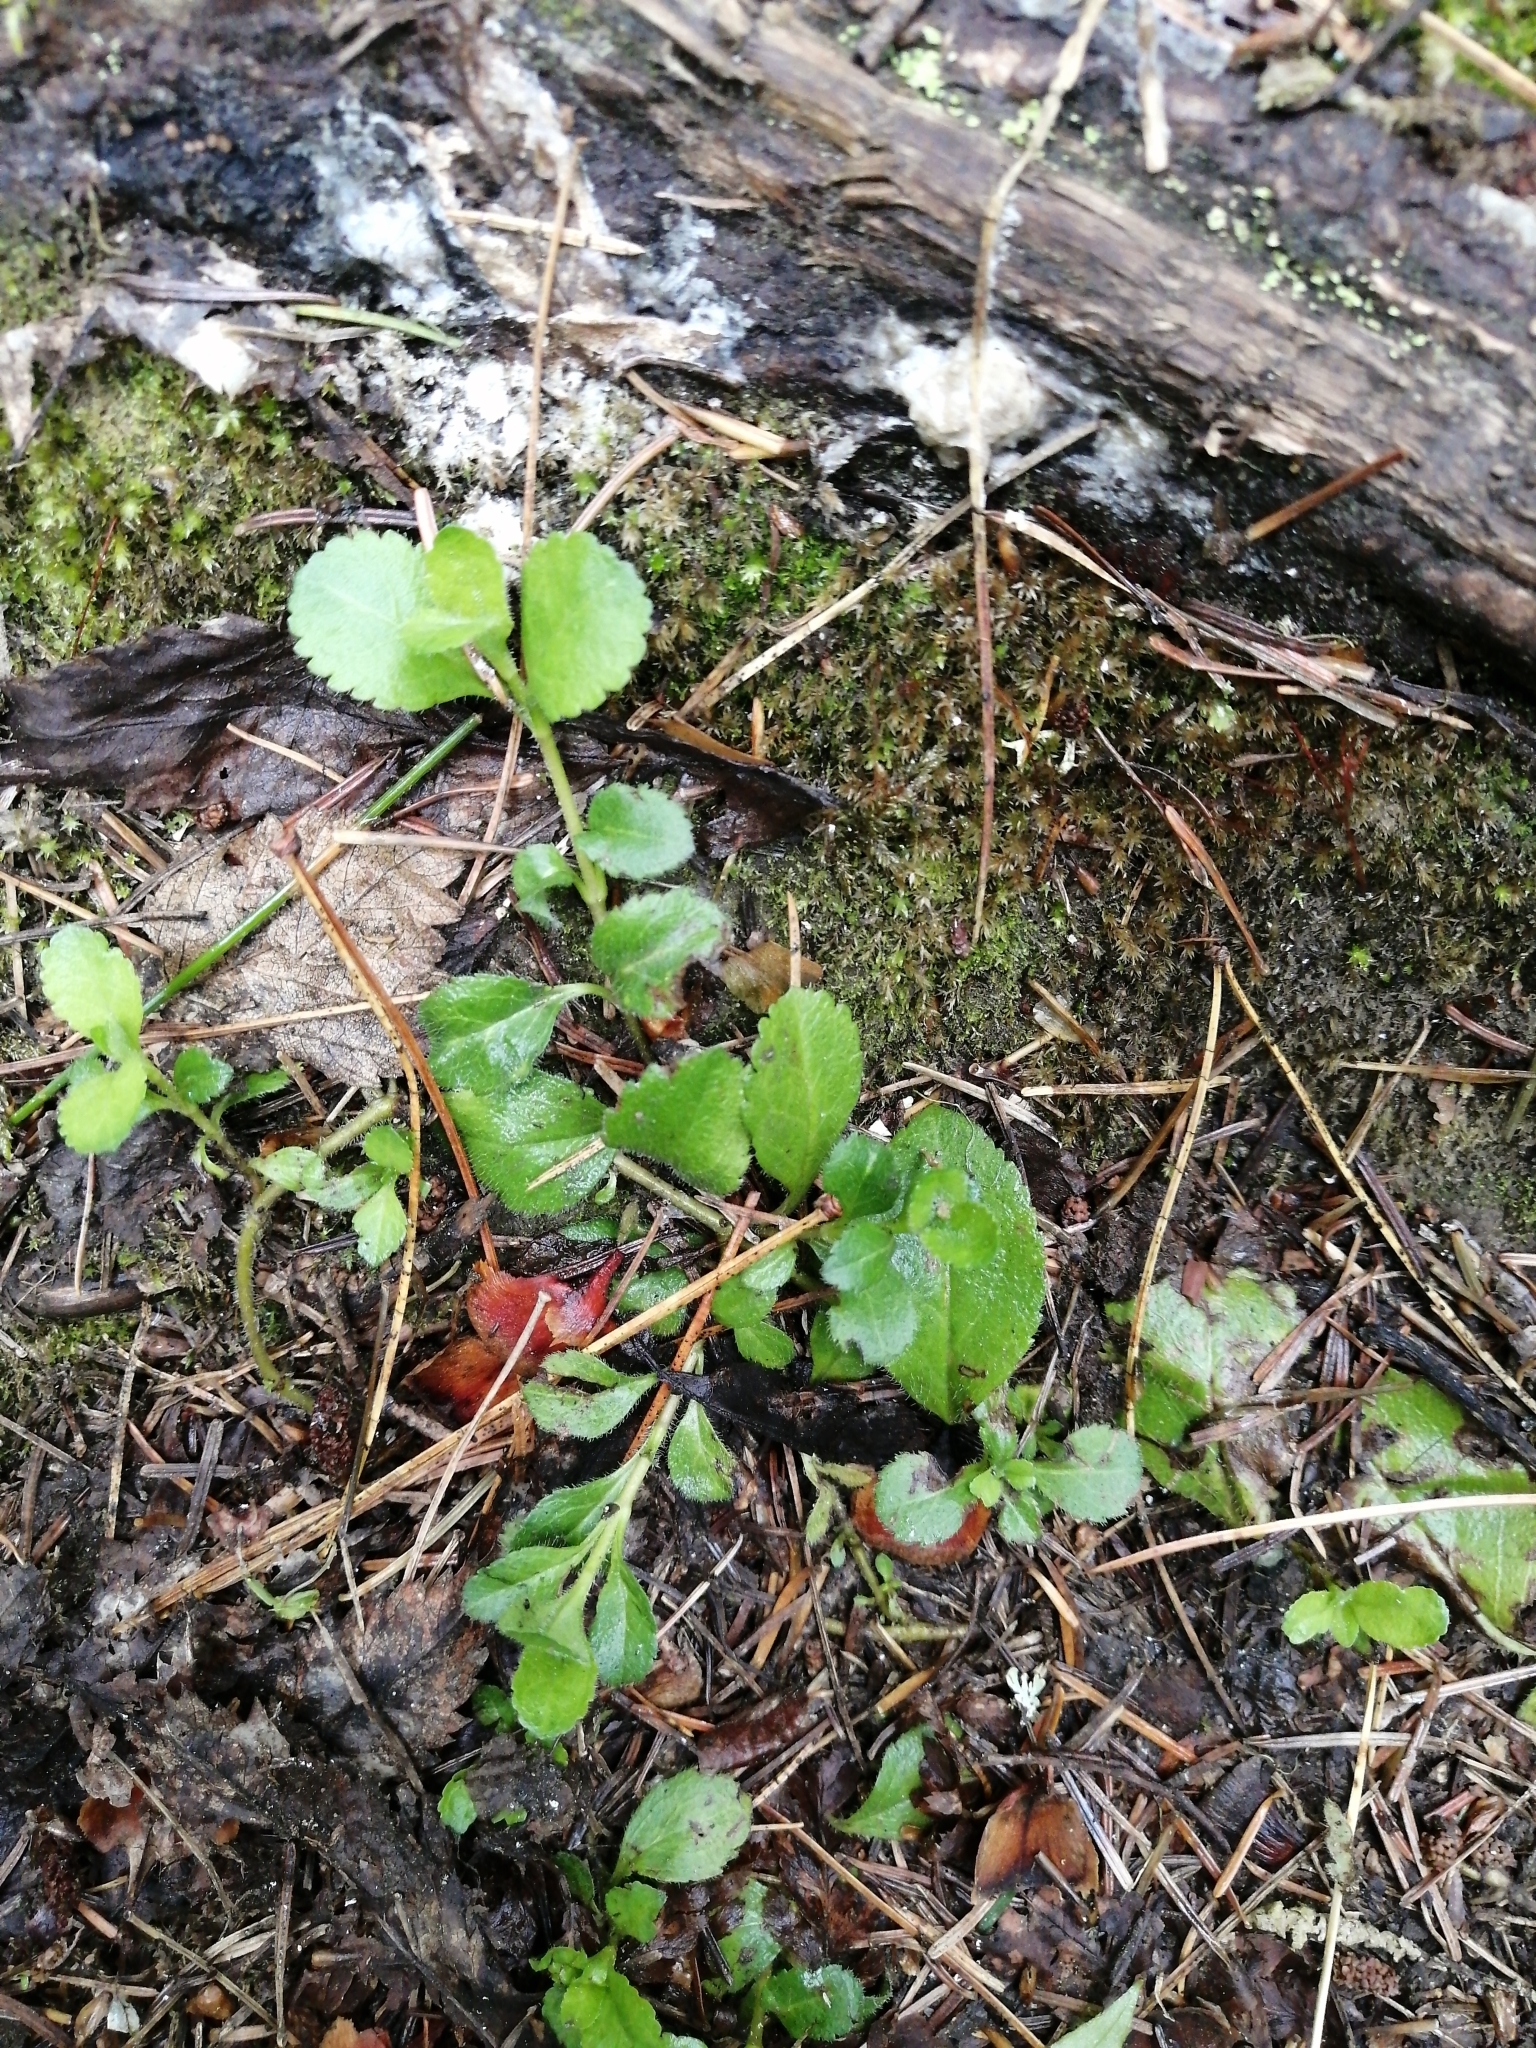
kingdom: Plantae
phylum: Tracheophyta
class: Magnoliopsida
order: Lamiales
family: Plantaginaceae
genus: Veronica
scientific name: Veronica officinalis
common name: Common speedwell
